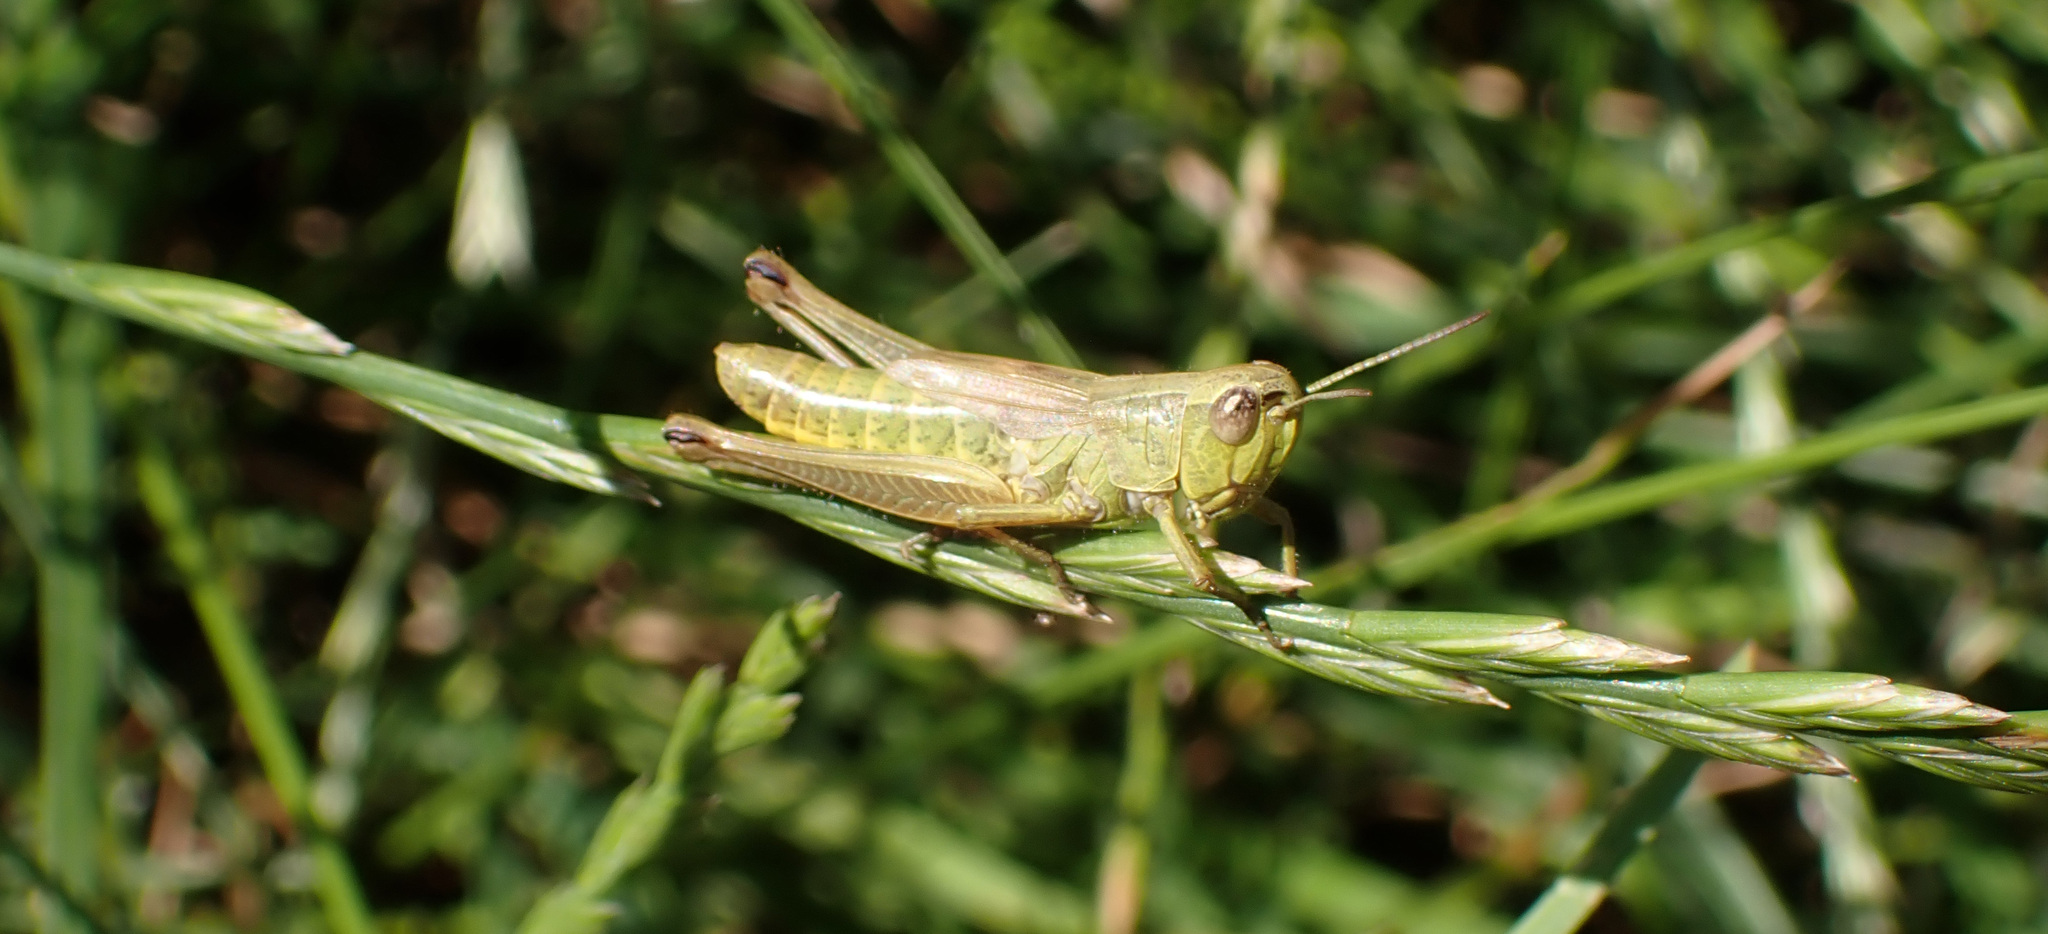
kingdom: Animalia
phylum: Arthropoda
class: Insecta
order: Orthoptera
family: Acrididae
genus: Pseudochorthippus
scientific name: Pseudochorthippus parallelus
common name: Meadow grasshopper
